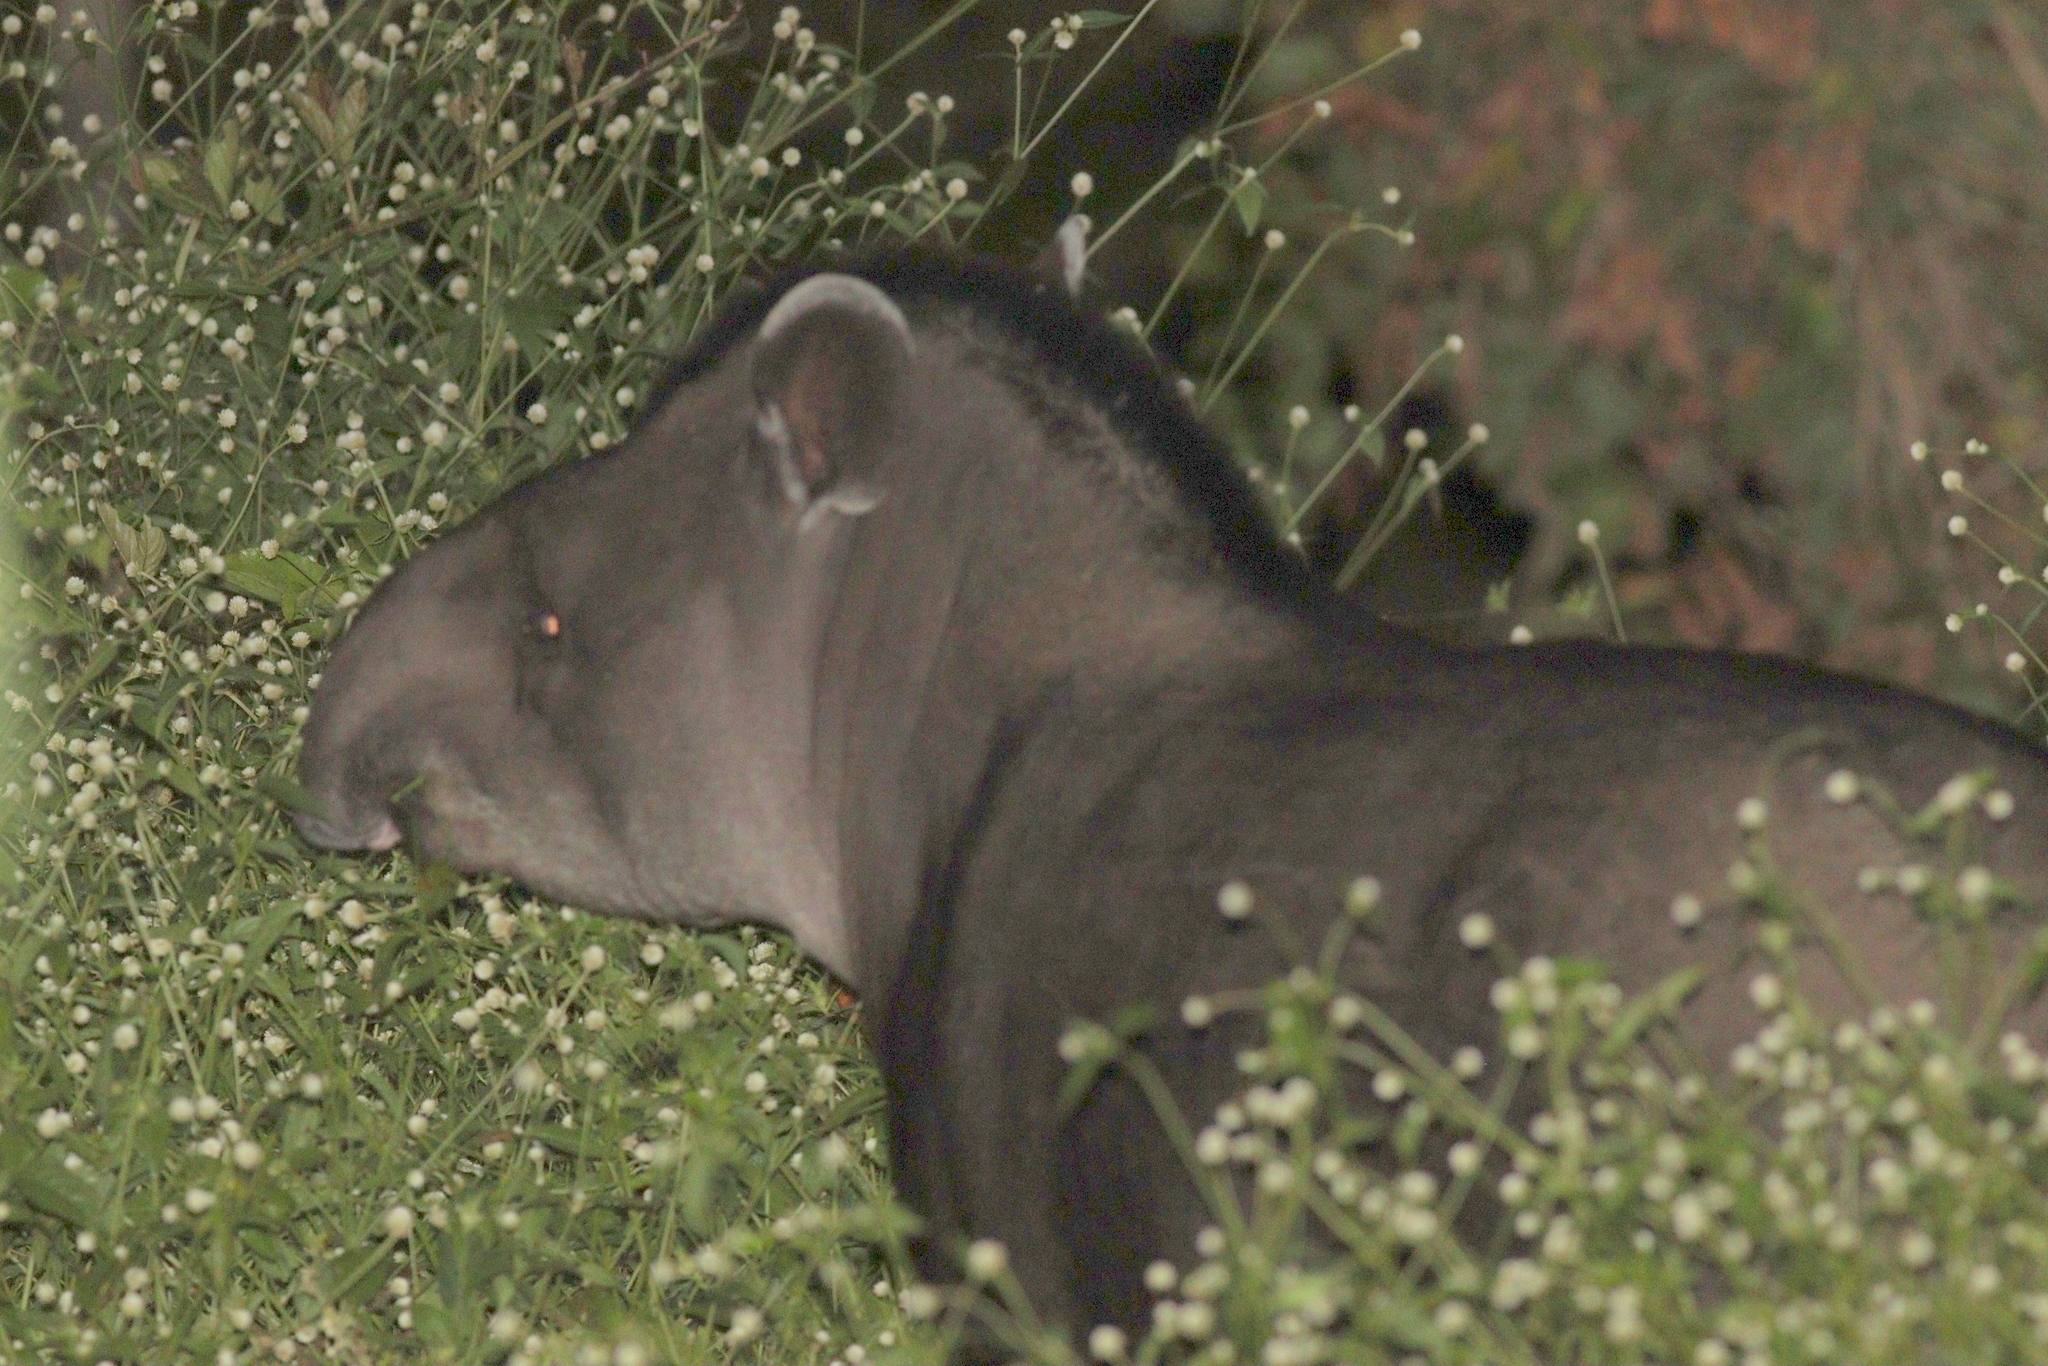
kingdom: Animalia
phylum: Chordata
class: Mammalia
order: Perissodactyla
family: Tapiridae
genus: Tapirus
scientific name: Tapirus terrestris
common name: Brazilian tapir
